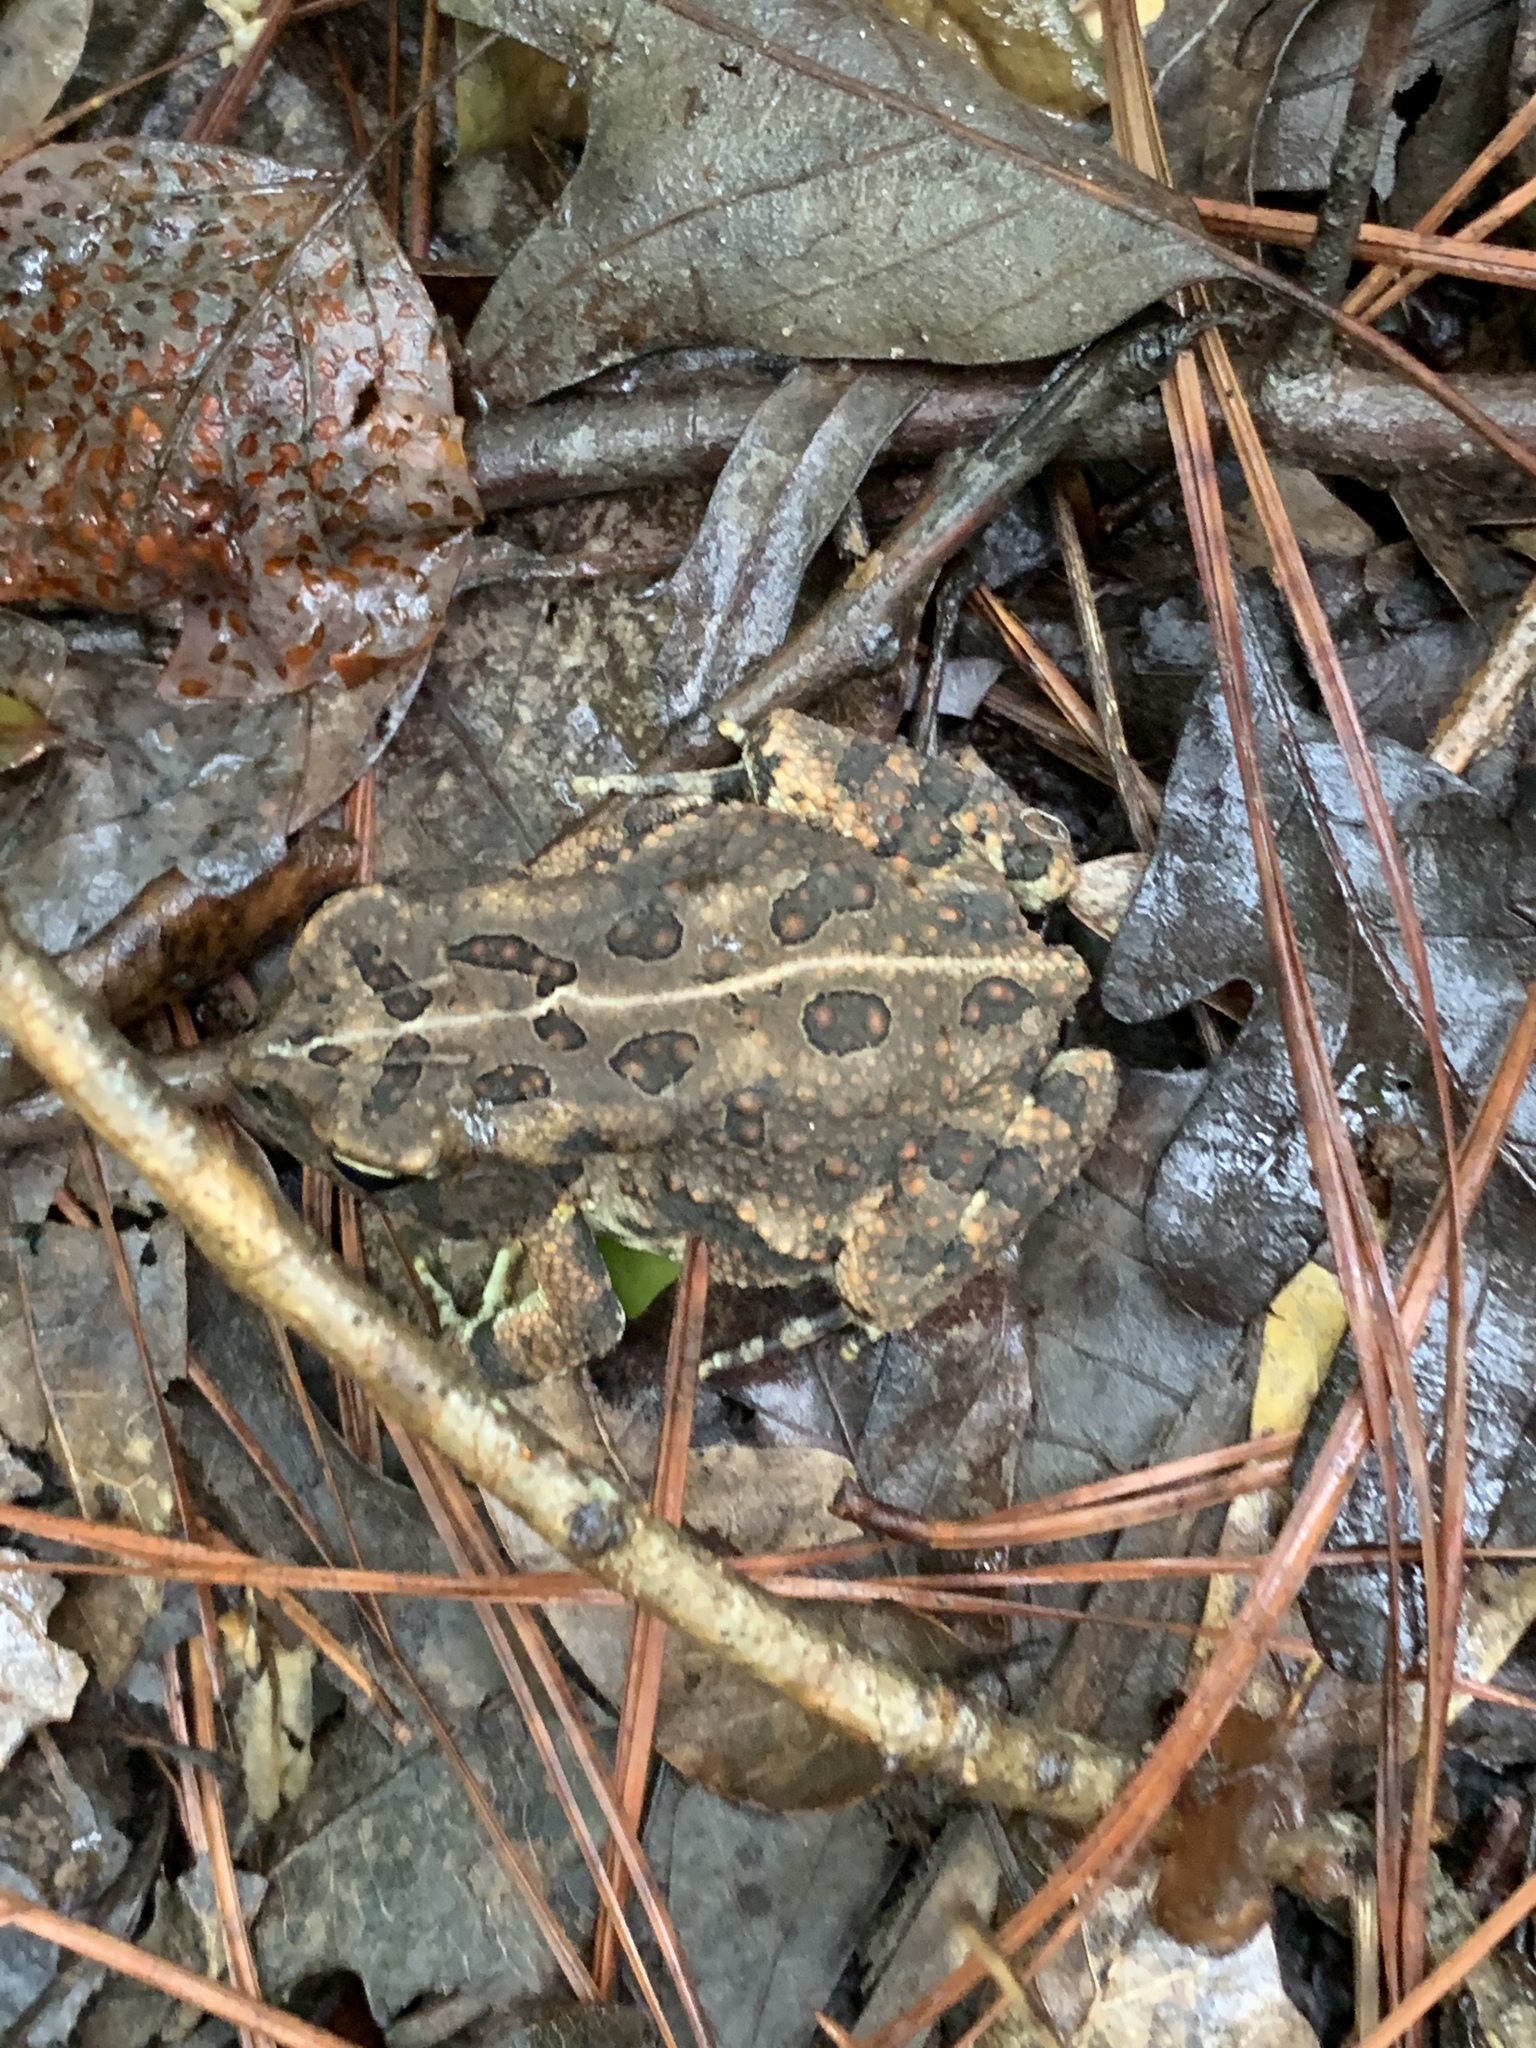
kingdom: Animalia
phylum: Chordata
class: Amphibia
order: Anura
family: Bufonidae
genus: Anaxyrus
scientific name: Anaxyrus fowleri
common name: Fowler's toad
